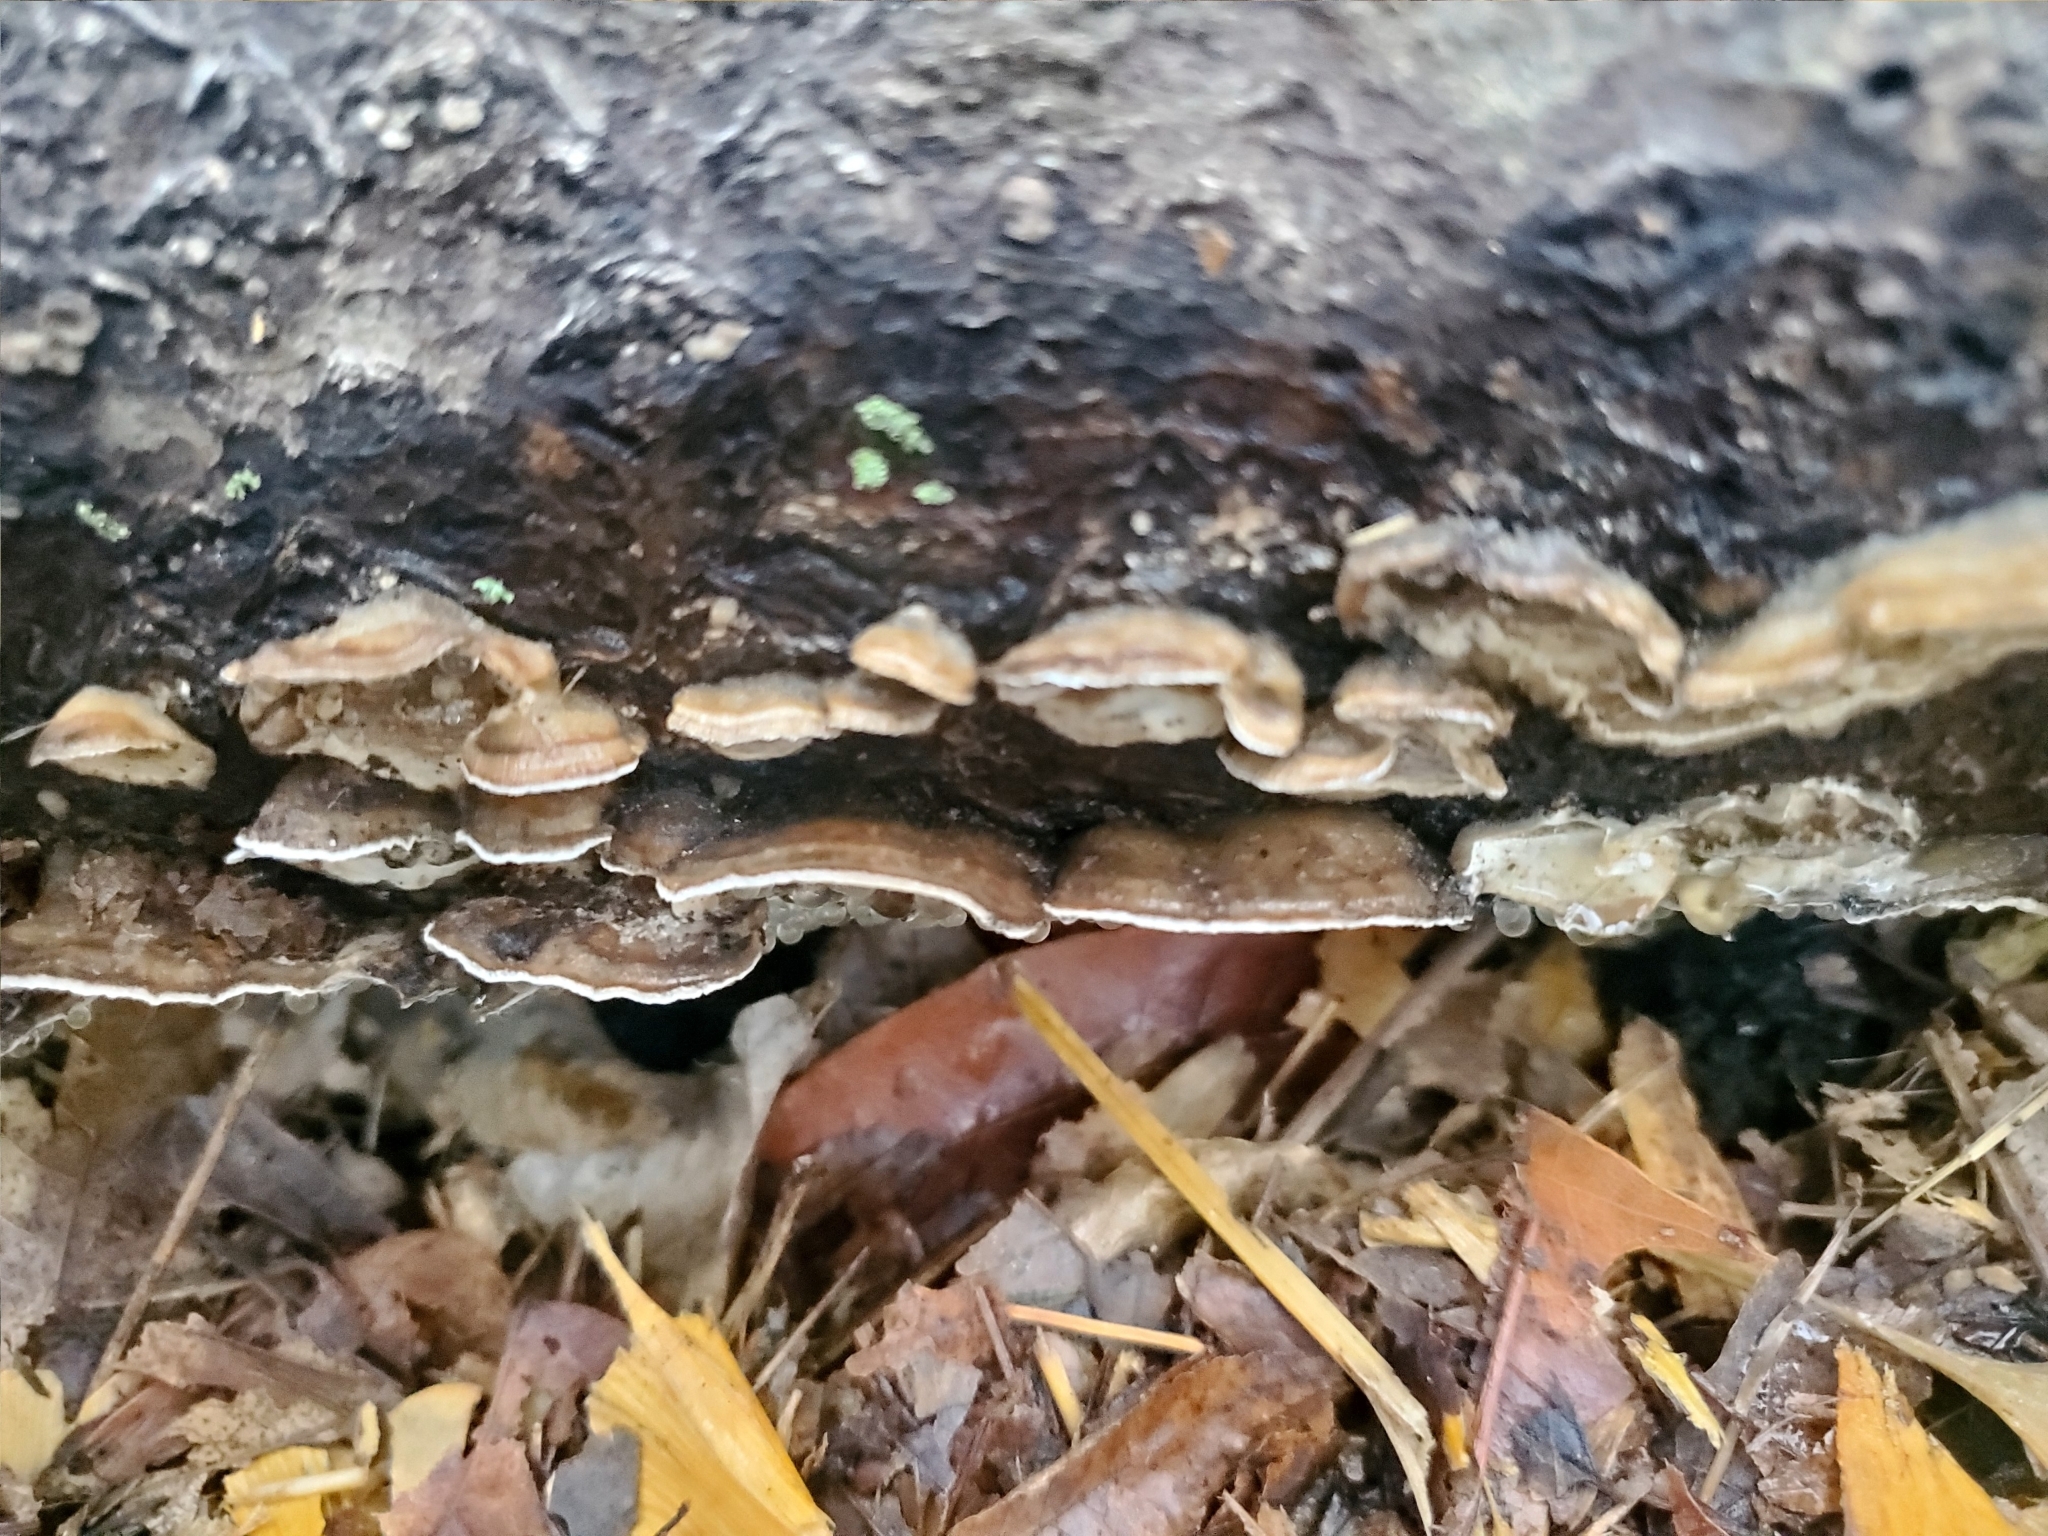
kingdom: Fungi
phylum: Basidiomycota
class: Agaricomycetes
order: Polyporales
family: Phanerochaetaceae
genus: Bjerkandera
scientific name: Bjerkandera adusta
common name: Smoky bracket
